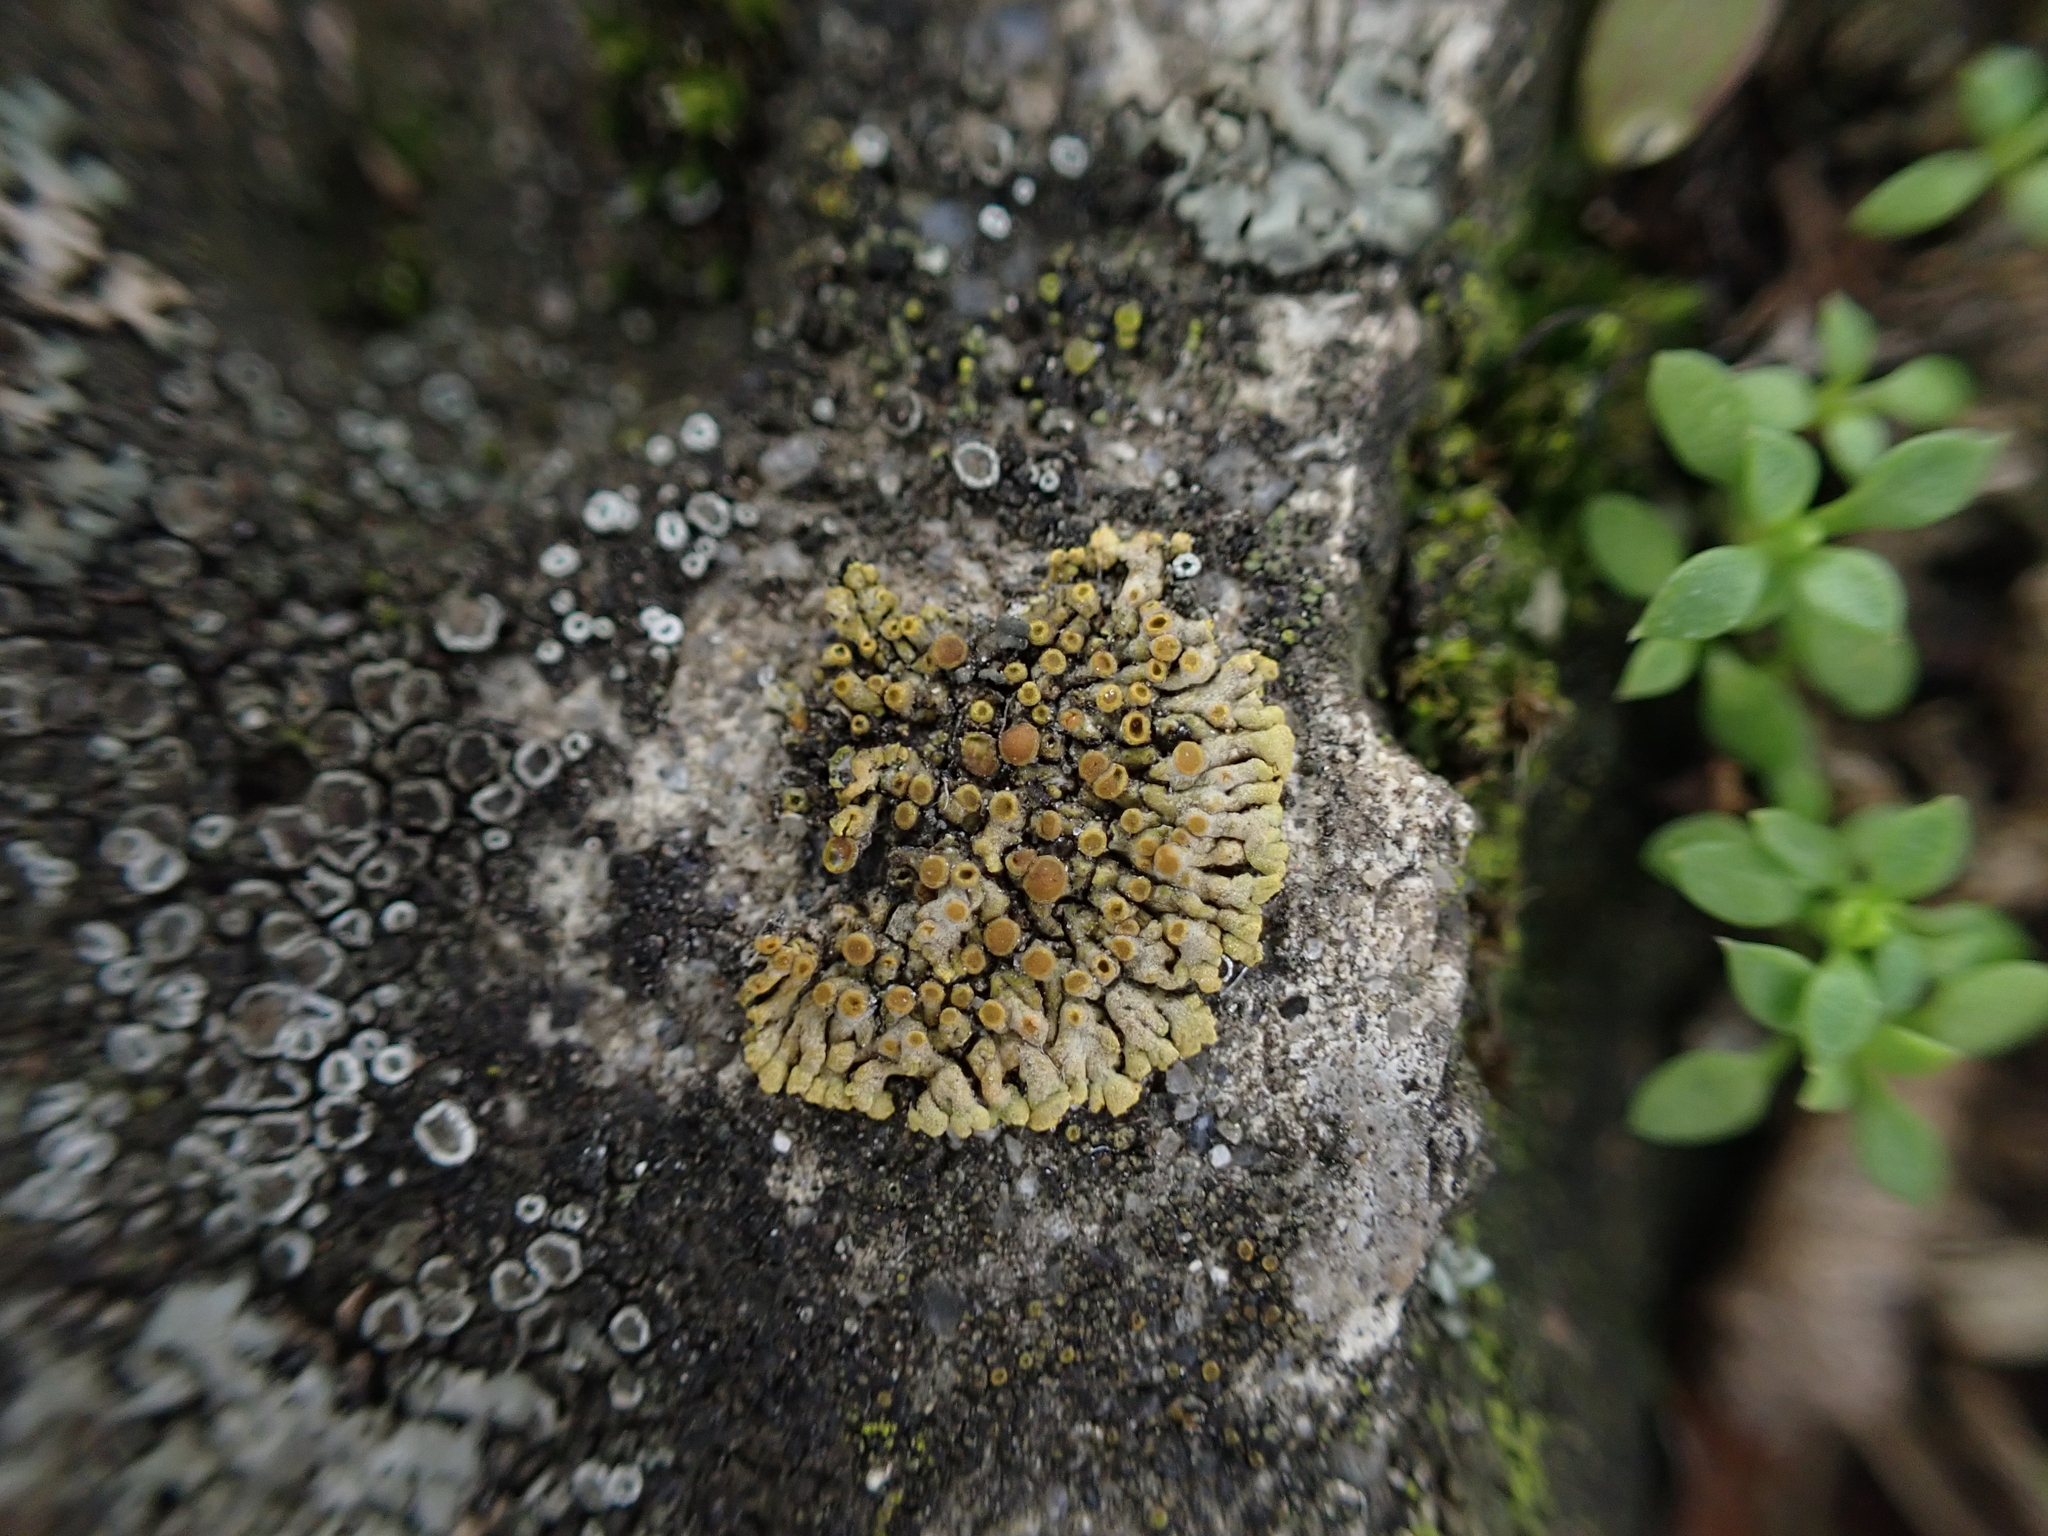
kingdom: Fungi
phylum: Ascomycota
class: Lecanoromycetes
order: Teloschistales
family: Teloschistaceae
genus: Calogaya
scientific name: Calogaya pusilla
